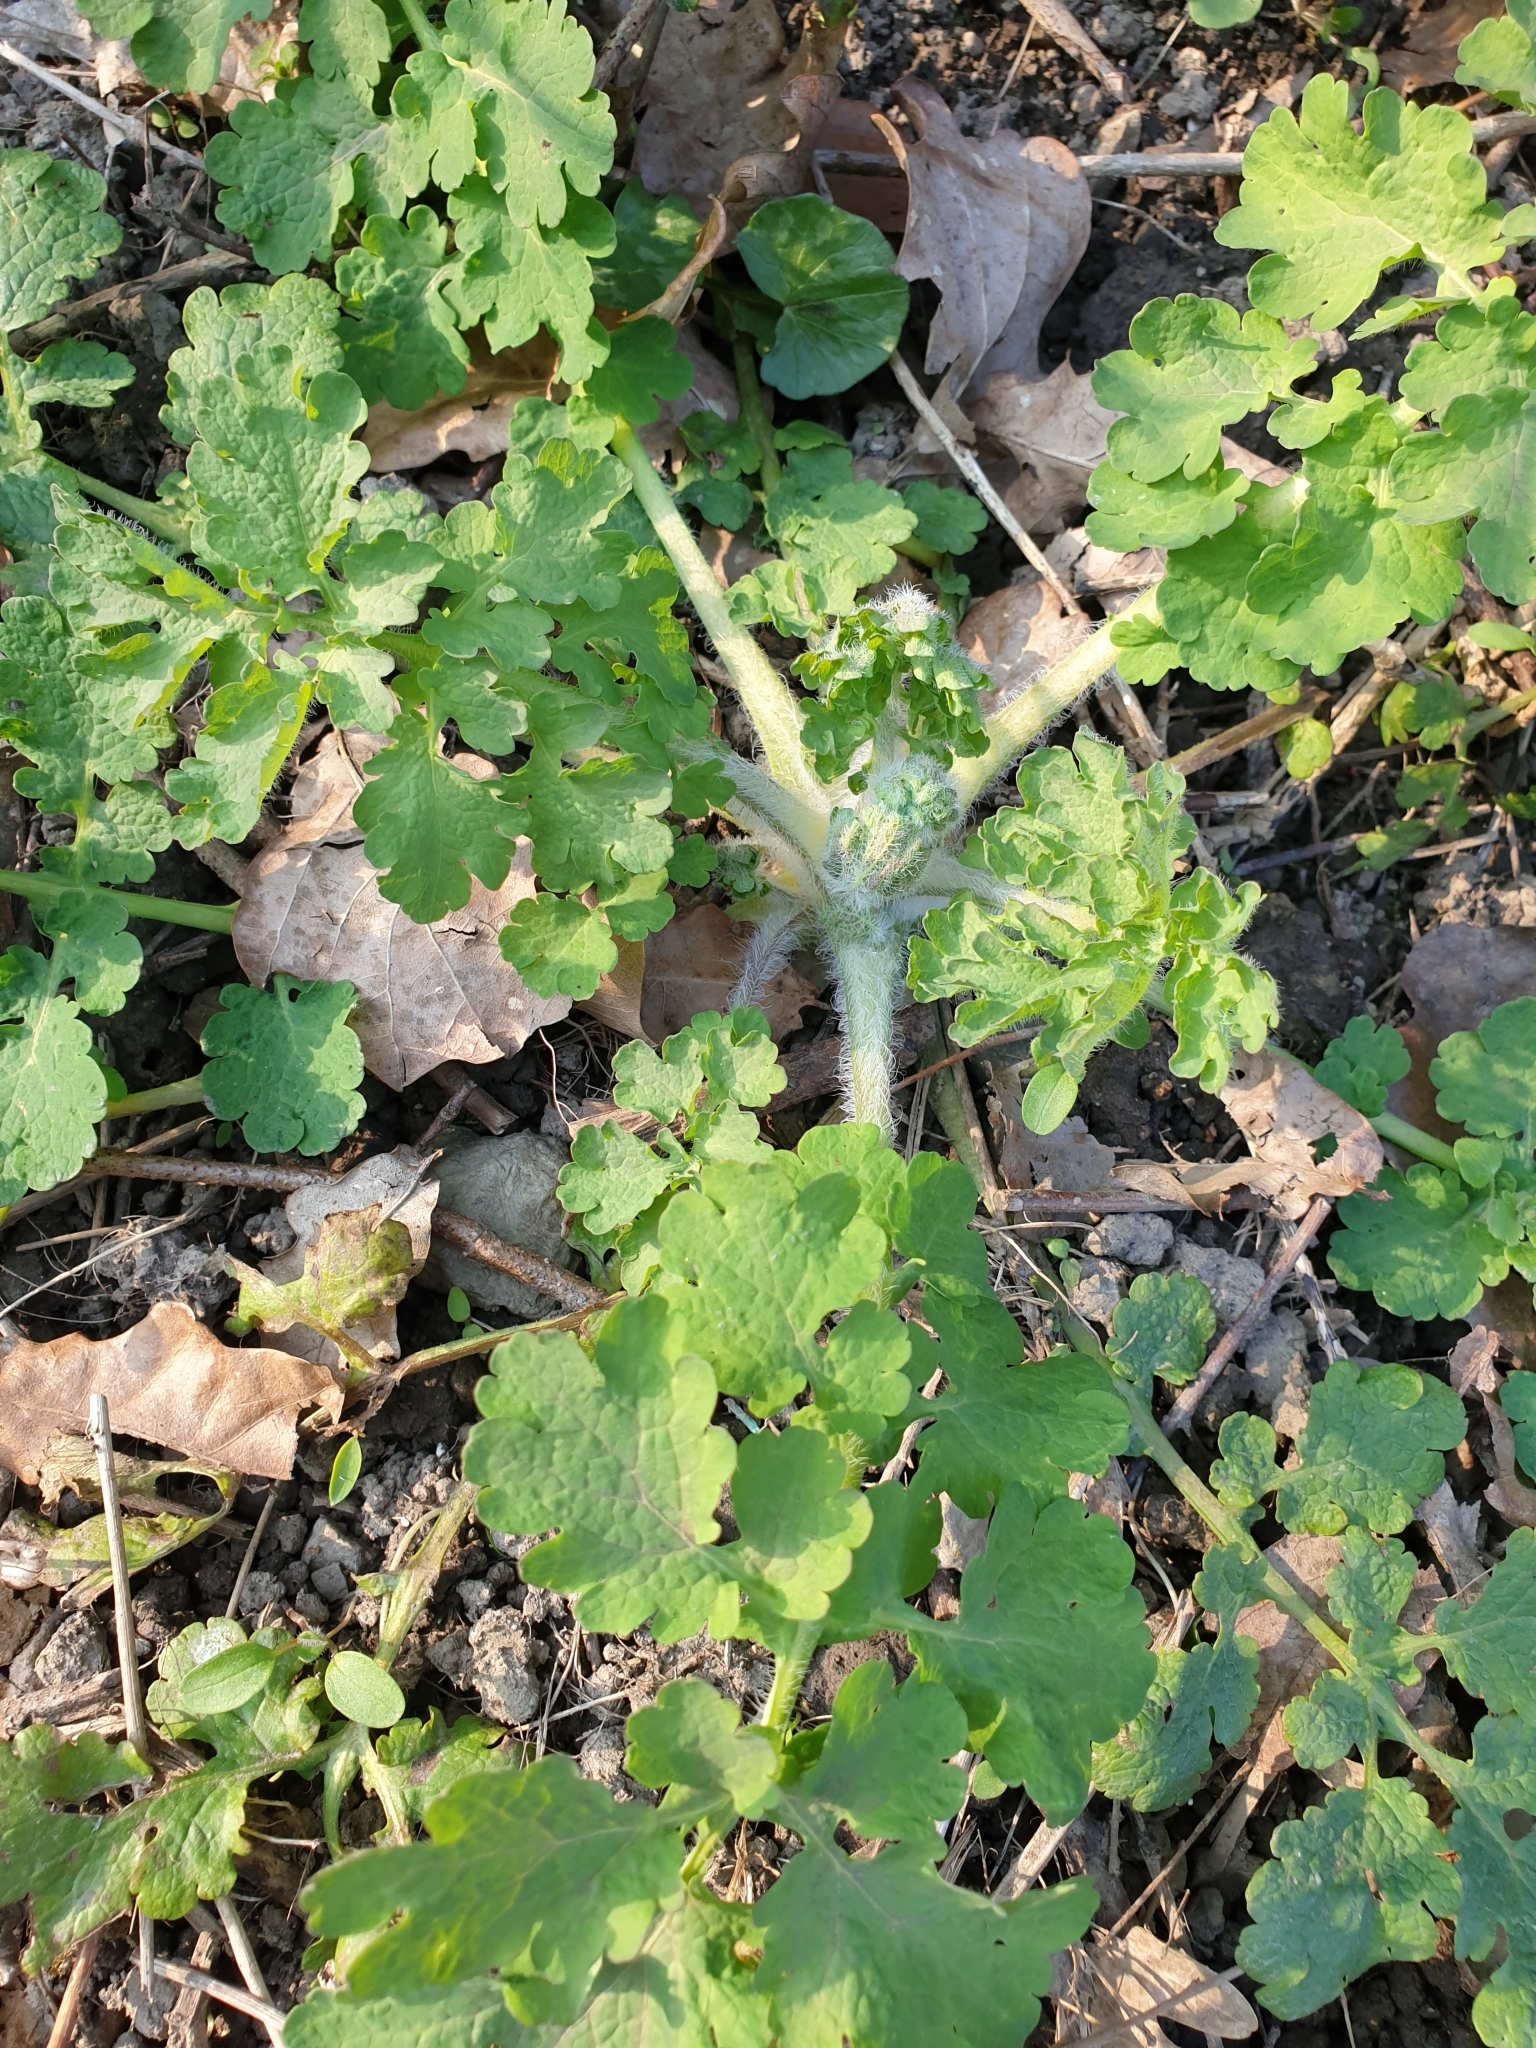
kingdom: Plantae
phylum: Tracheophyta
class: Magnoliopsida
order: Ranunculales
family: Papaveraceae
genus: Chelidonium
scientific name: Chelidonium majus
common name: Greater celandine
